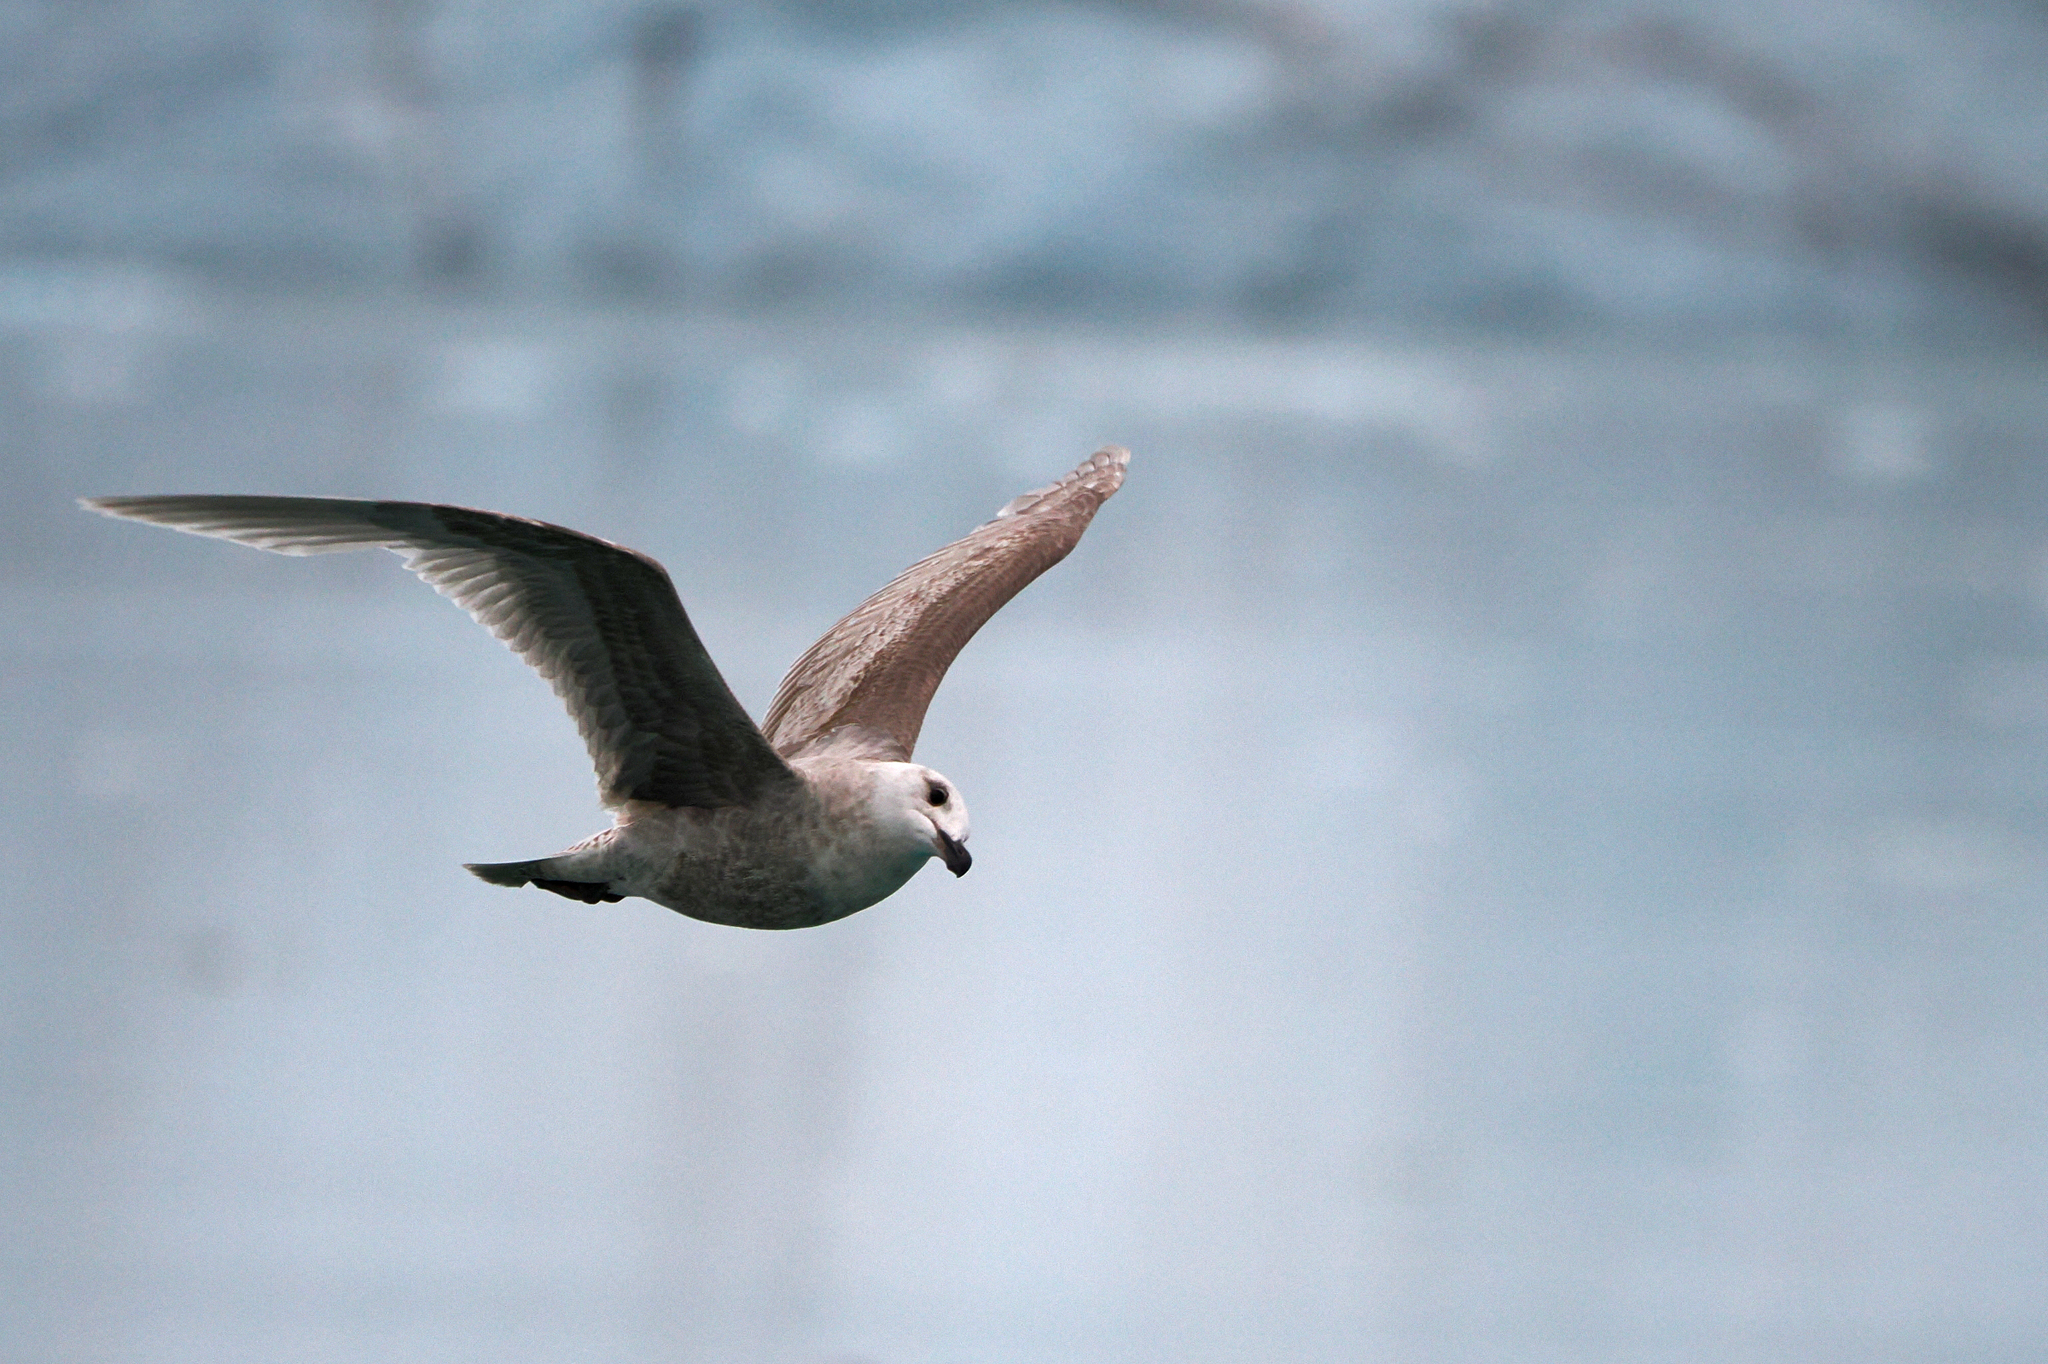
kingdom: Animalia
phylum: Chordata
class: Aves
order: Charadriiformes
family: Laridae
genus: Larus
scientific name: Larus glaucescens
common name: Glaucous-winged gull
